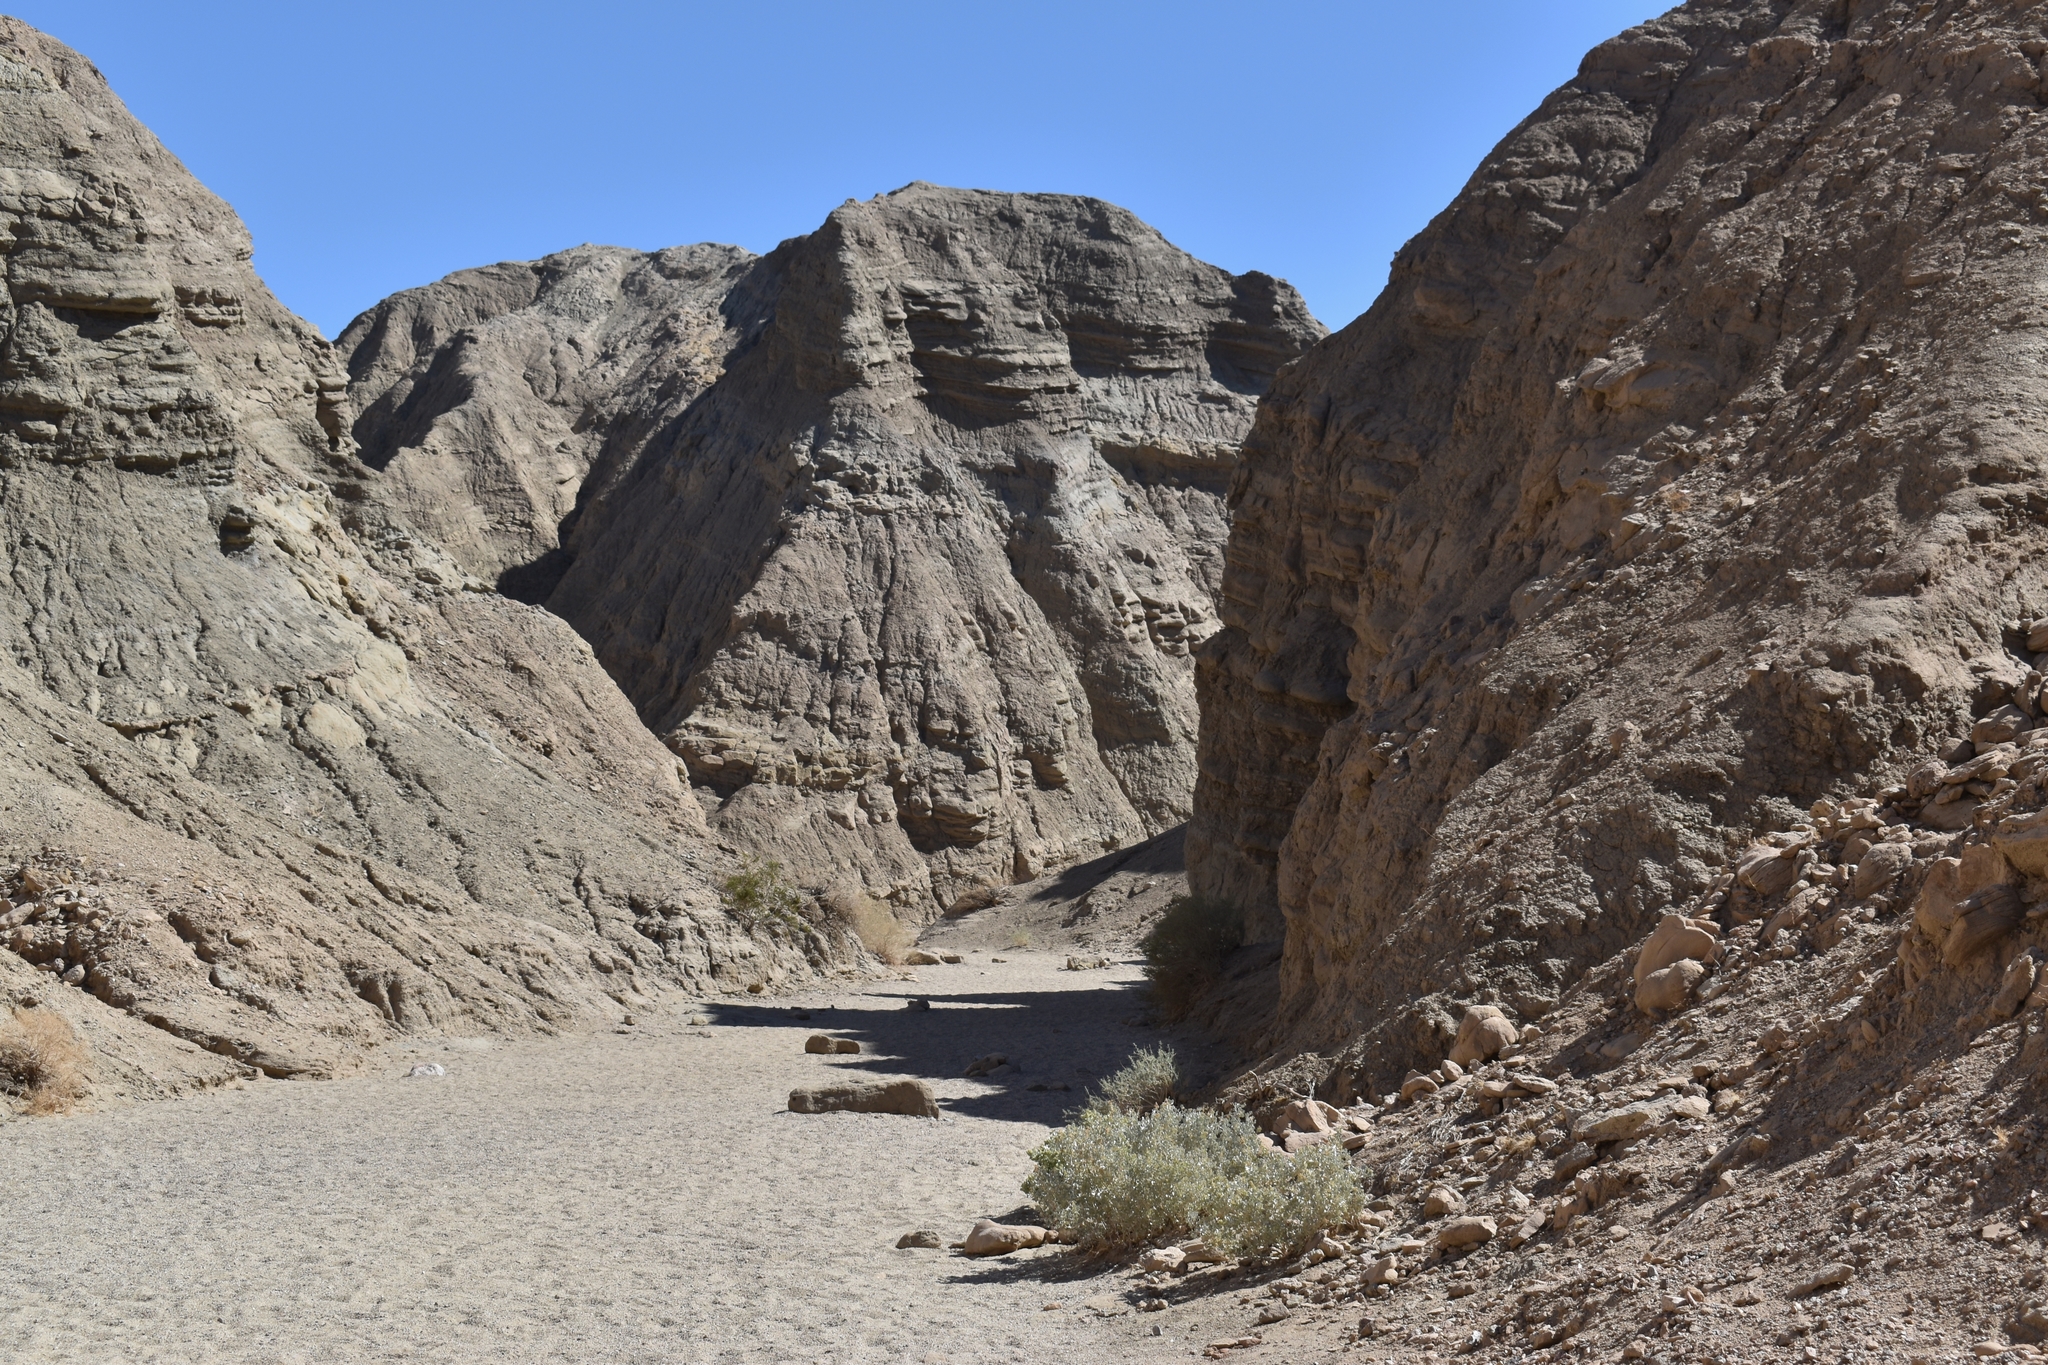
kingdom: Plantae
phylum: Tracheophyta
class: Magnoliopsida
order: Caryophyllales
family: Amaranthaceae
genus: Atriplex
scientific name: Atriplex hymenelytra
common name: Desert-holly
